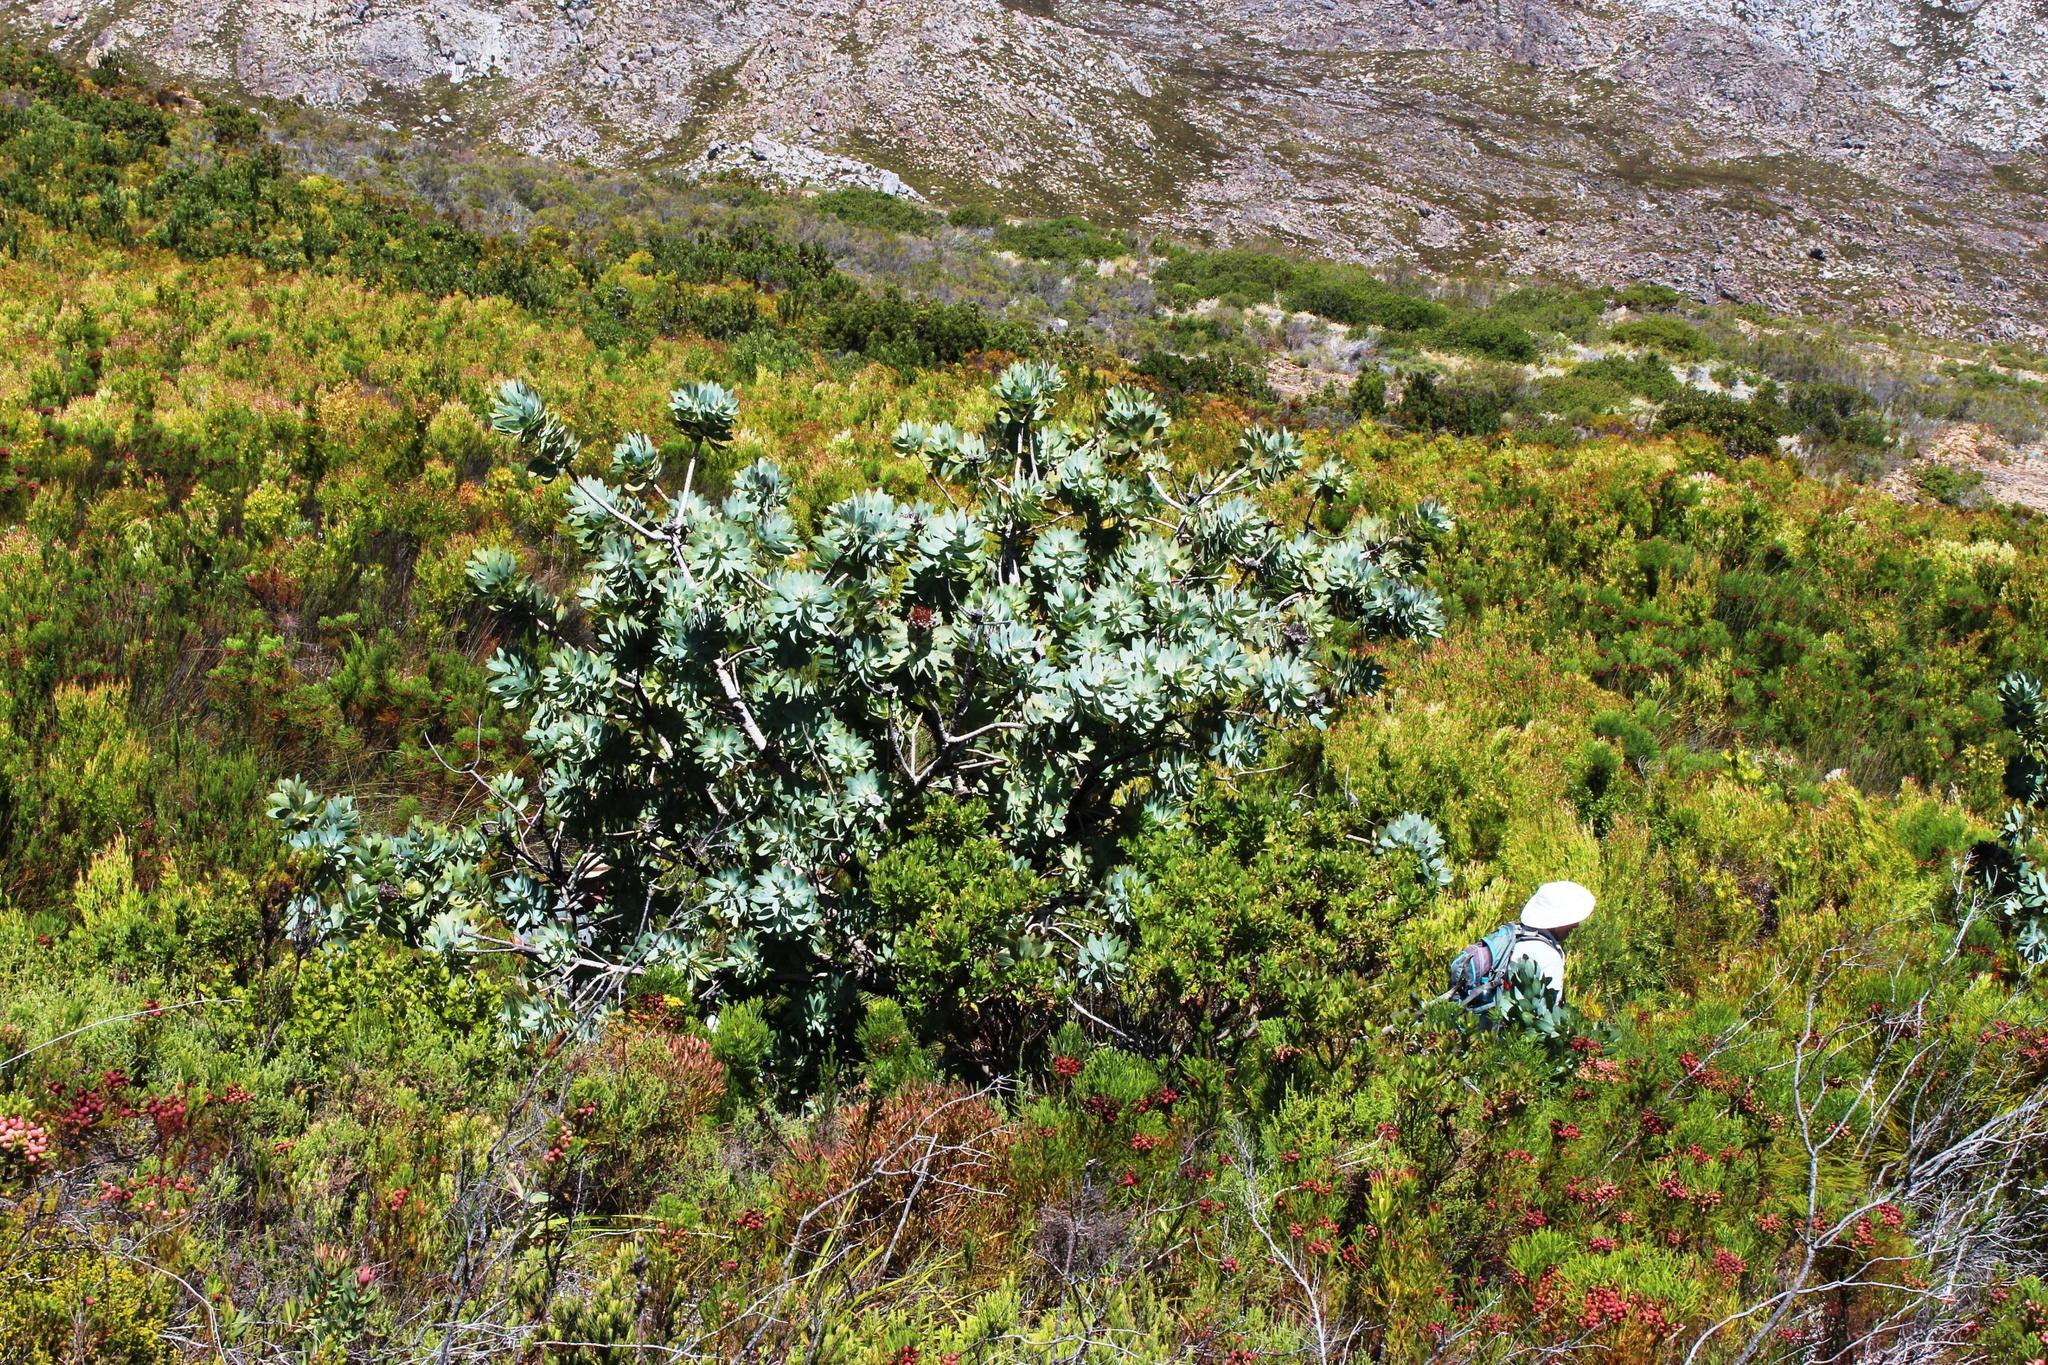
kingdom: Plantae
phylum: Tracheophyta
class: Magnoliopsida
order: Proteales
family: Proteaceae
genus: Protea
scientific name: Protea nitida
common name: Tree protea
